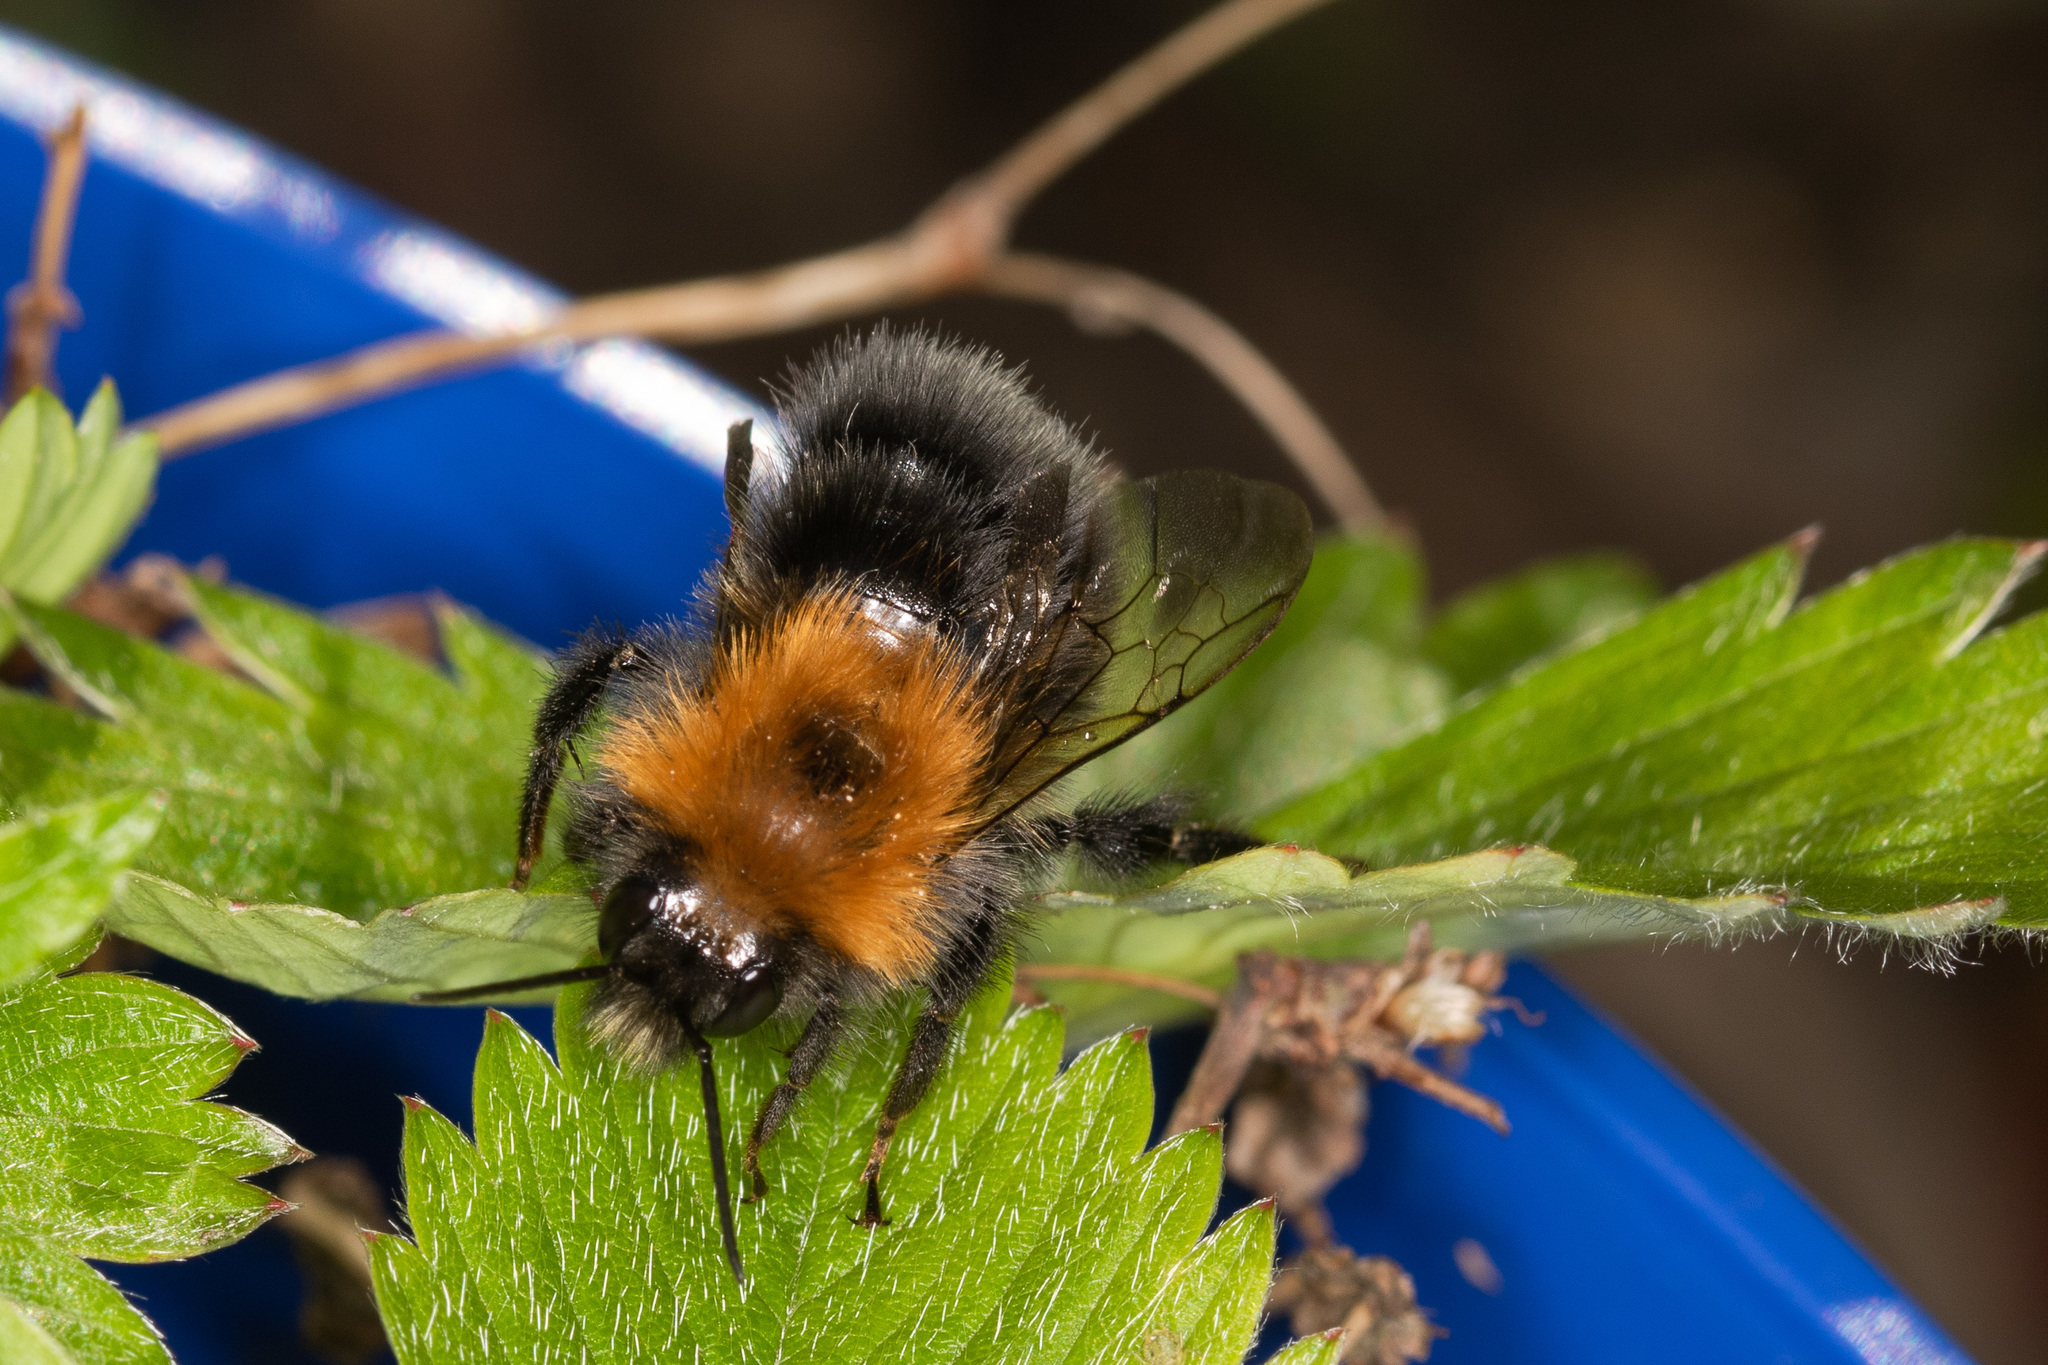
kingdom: Animalia
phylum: Arthropoda
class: Insecta
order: Hymenoptera
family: Apidae
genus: Bombus
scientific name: Bombus hypnorum
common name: New garden bumblebee
